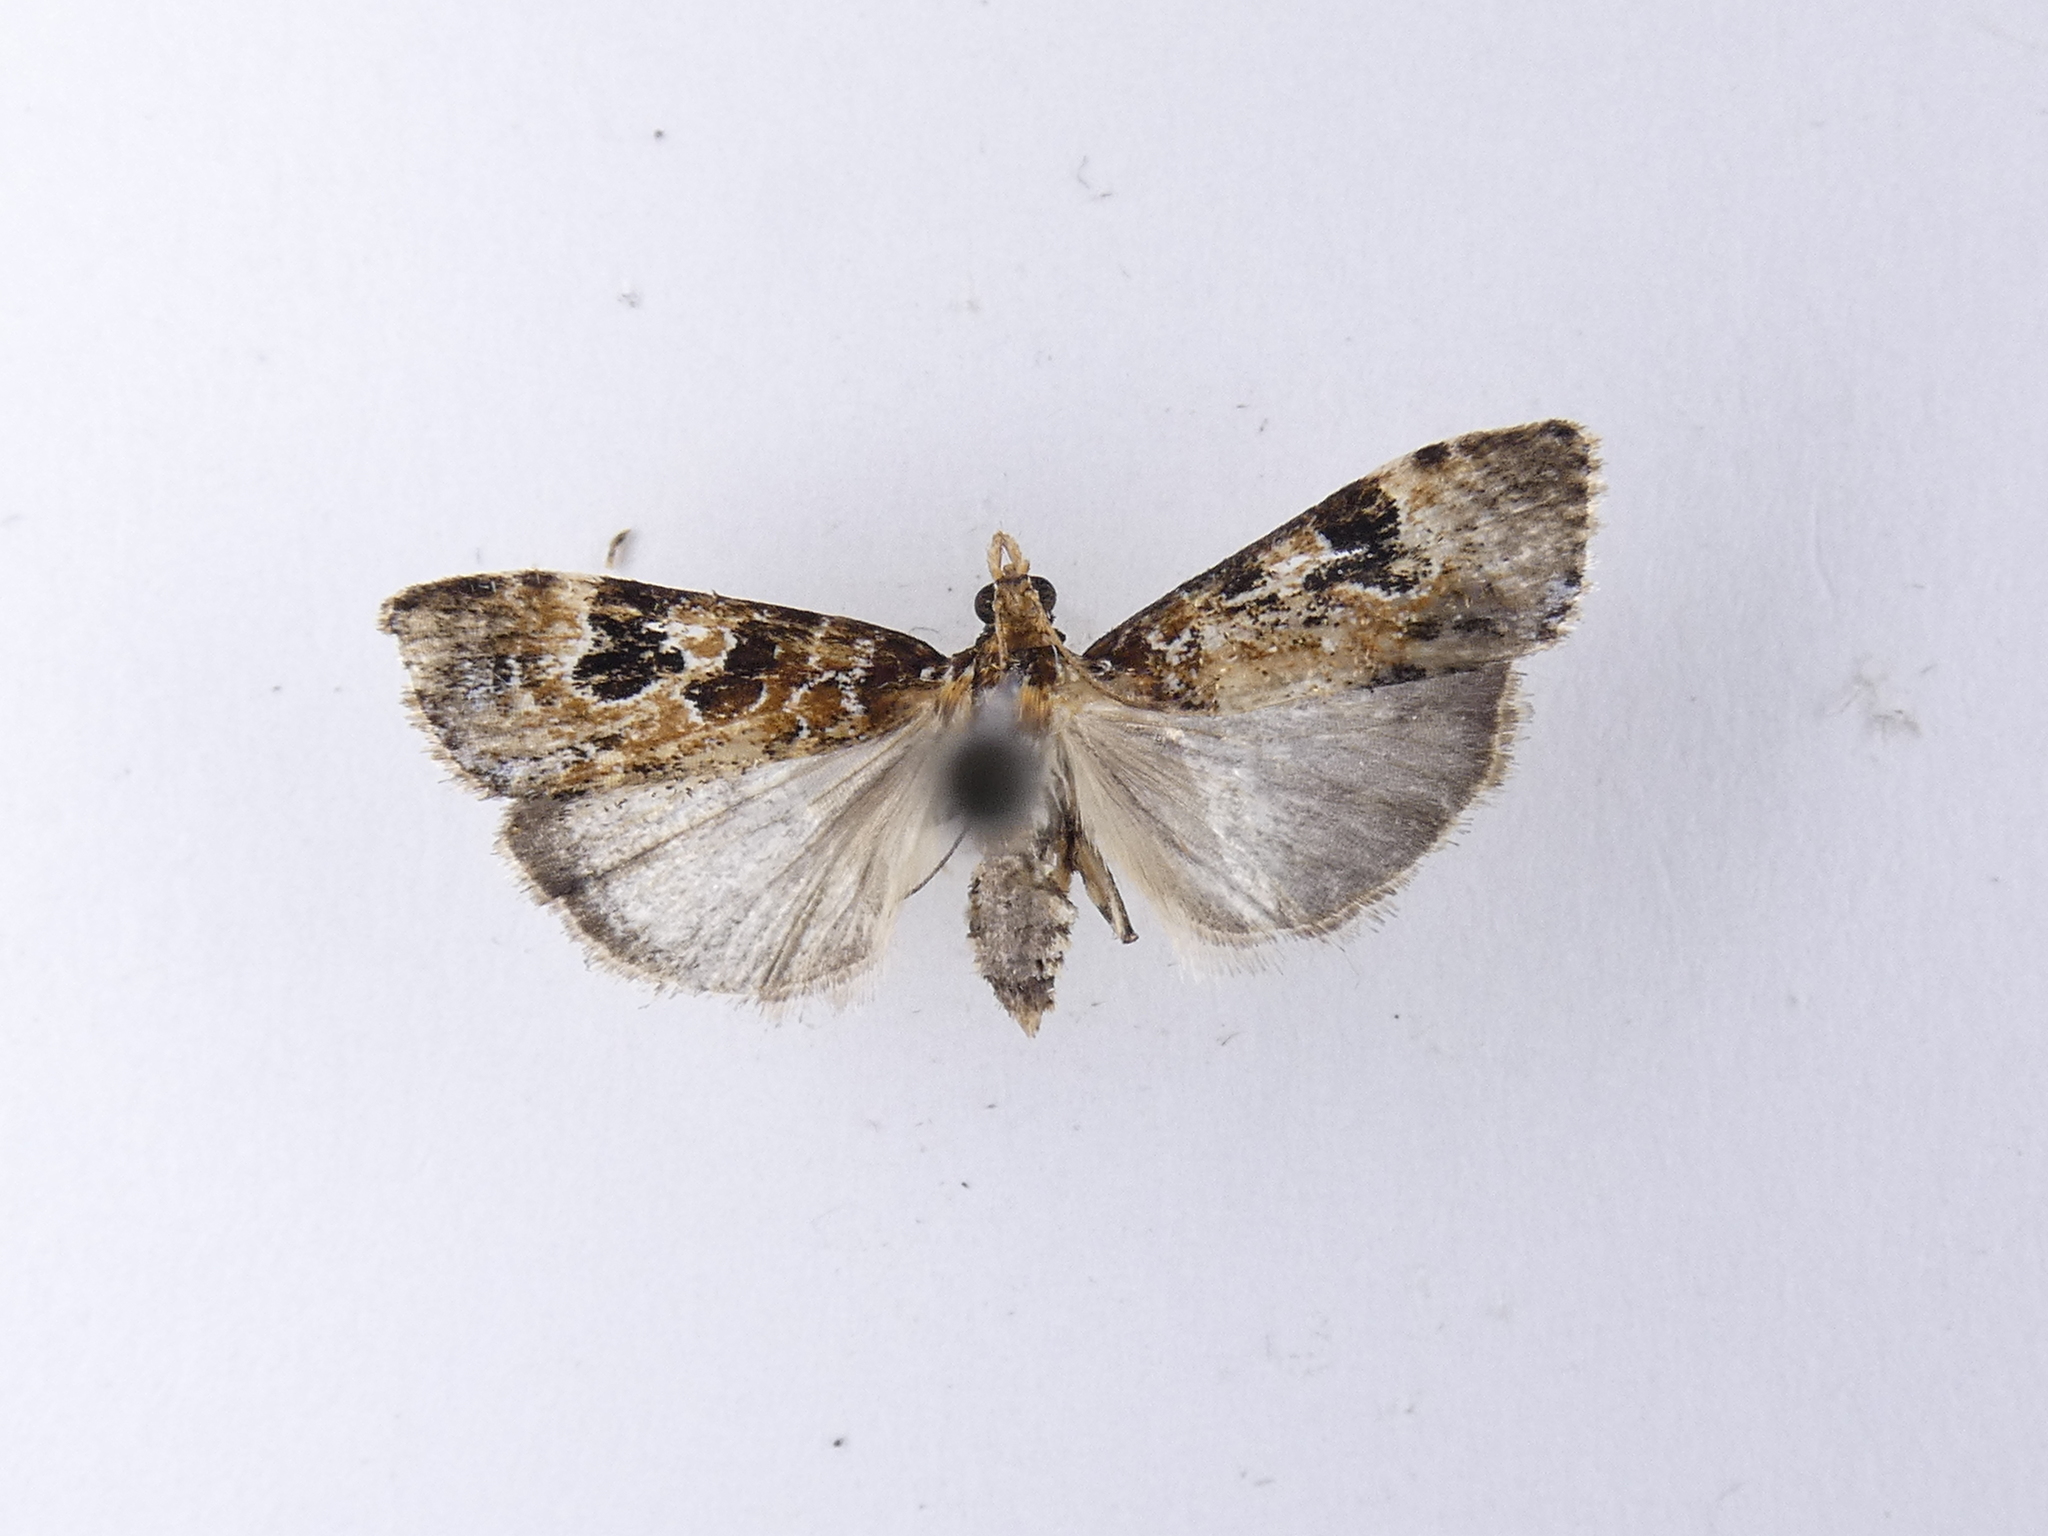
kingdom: Animalia
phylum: Arthropoda
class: Insecta
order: Lepidoptera
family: Crambidae
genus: Scoparia
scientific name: Scoparia ustimacula
